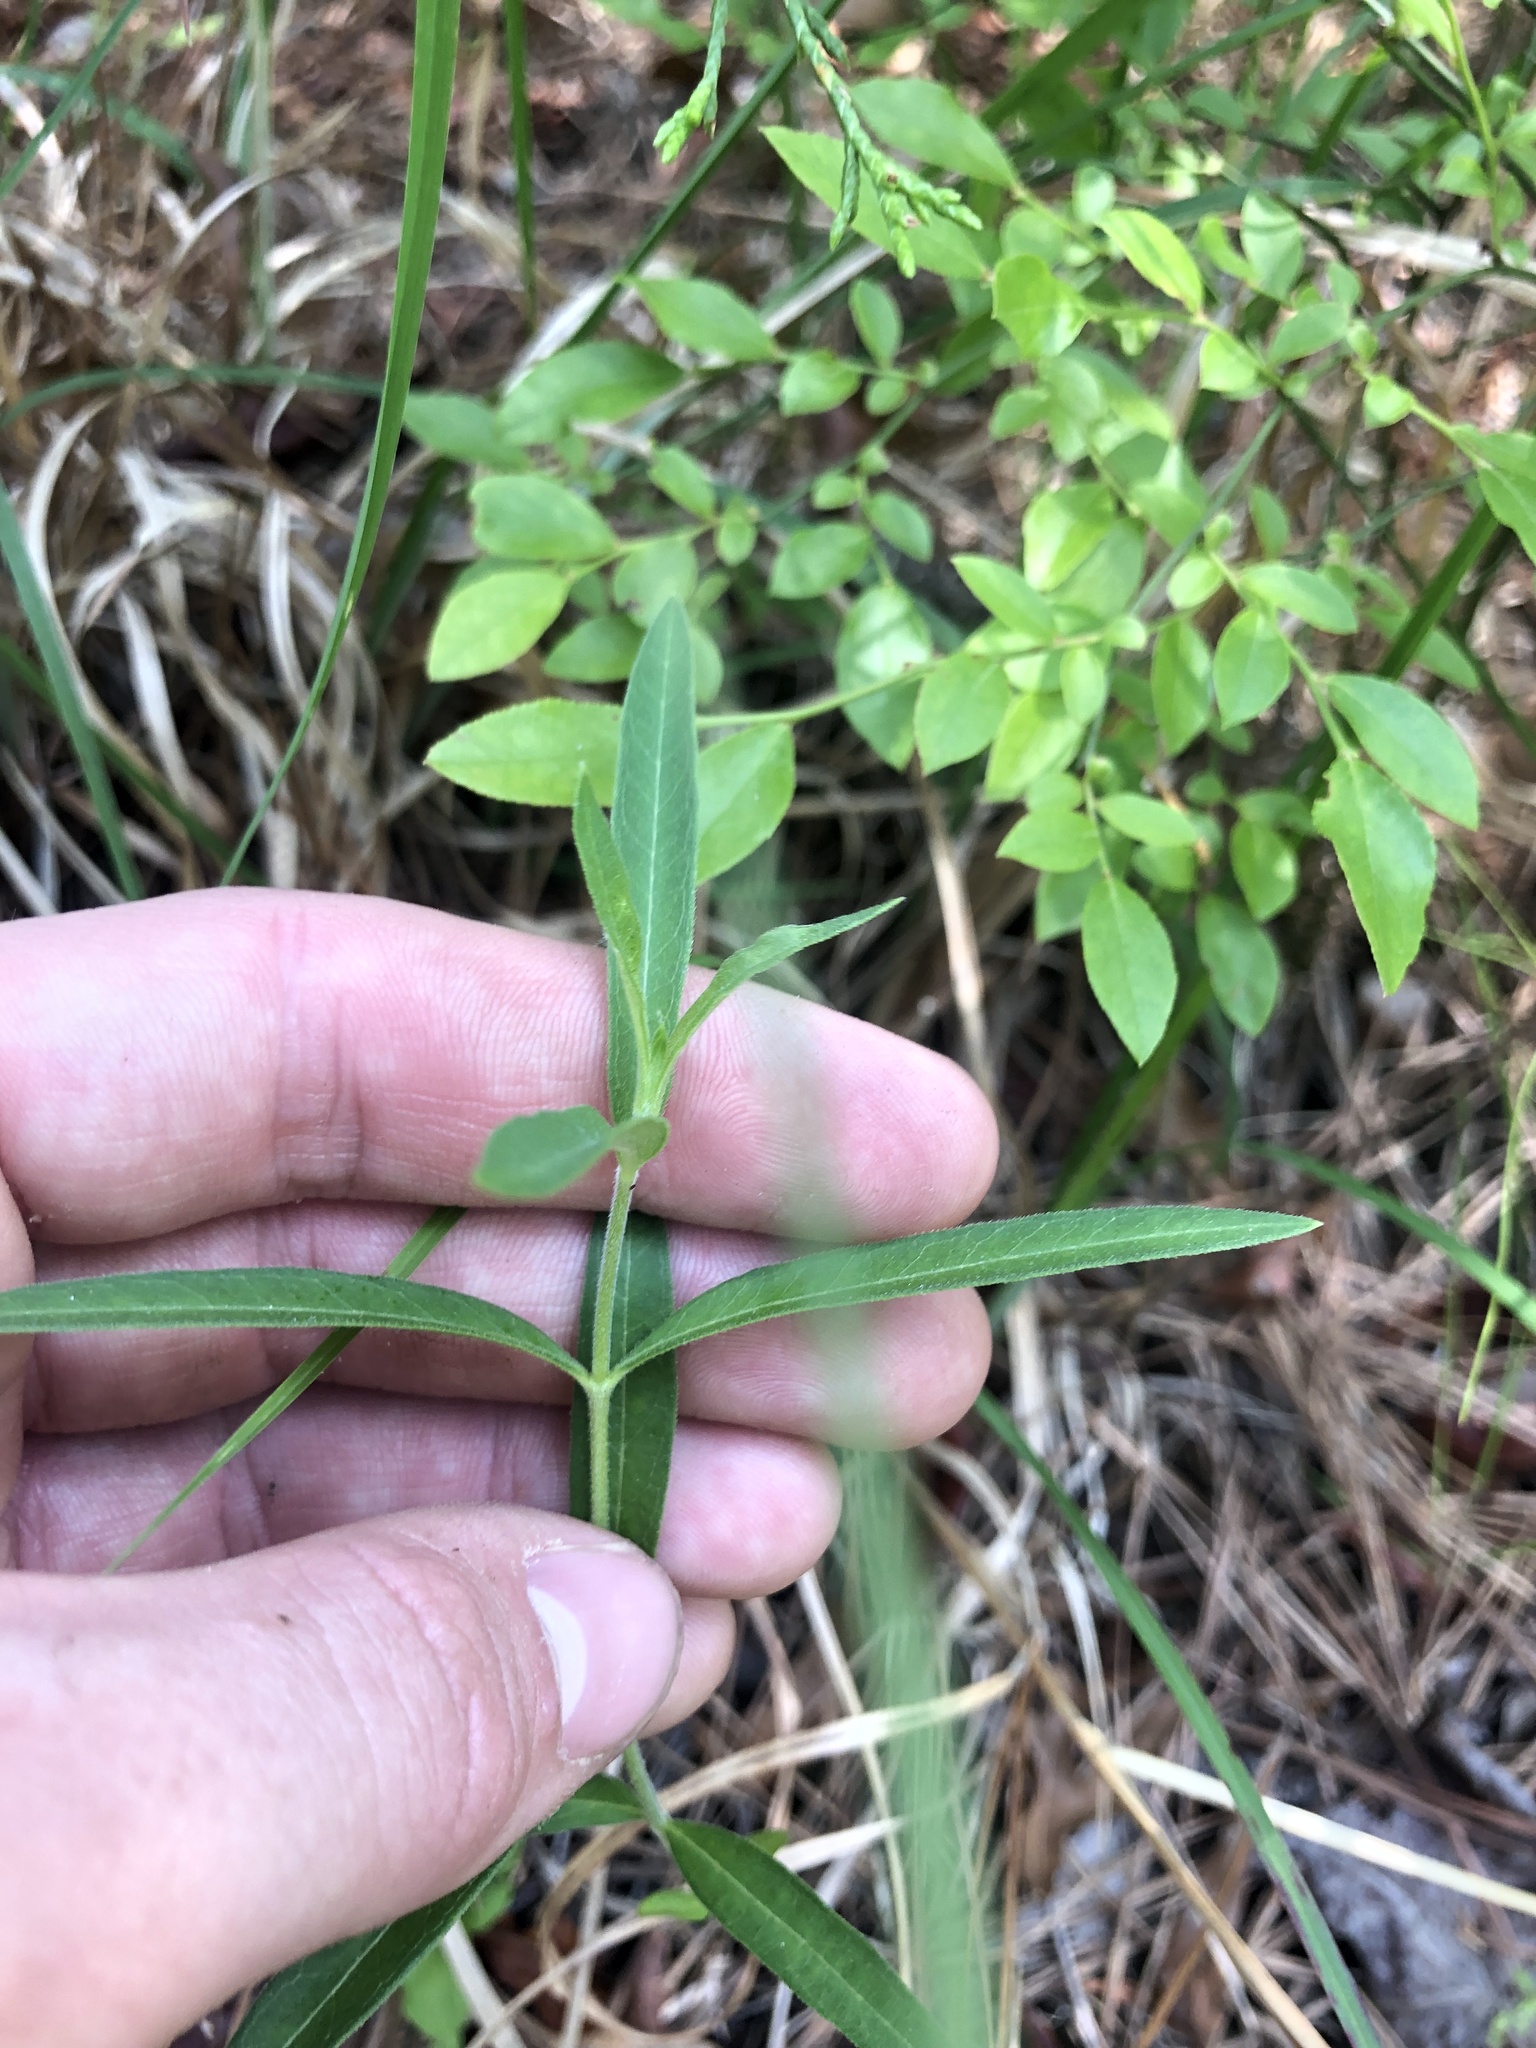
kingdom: Plantae
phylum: Tracheophyta
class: Magnoliopsida
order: Gentianales
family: Apocynaceae
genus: Asclepias
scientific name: Asclepias viridiflora
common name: Green comet milkweed
